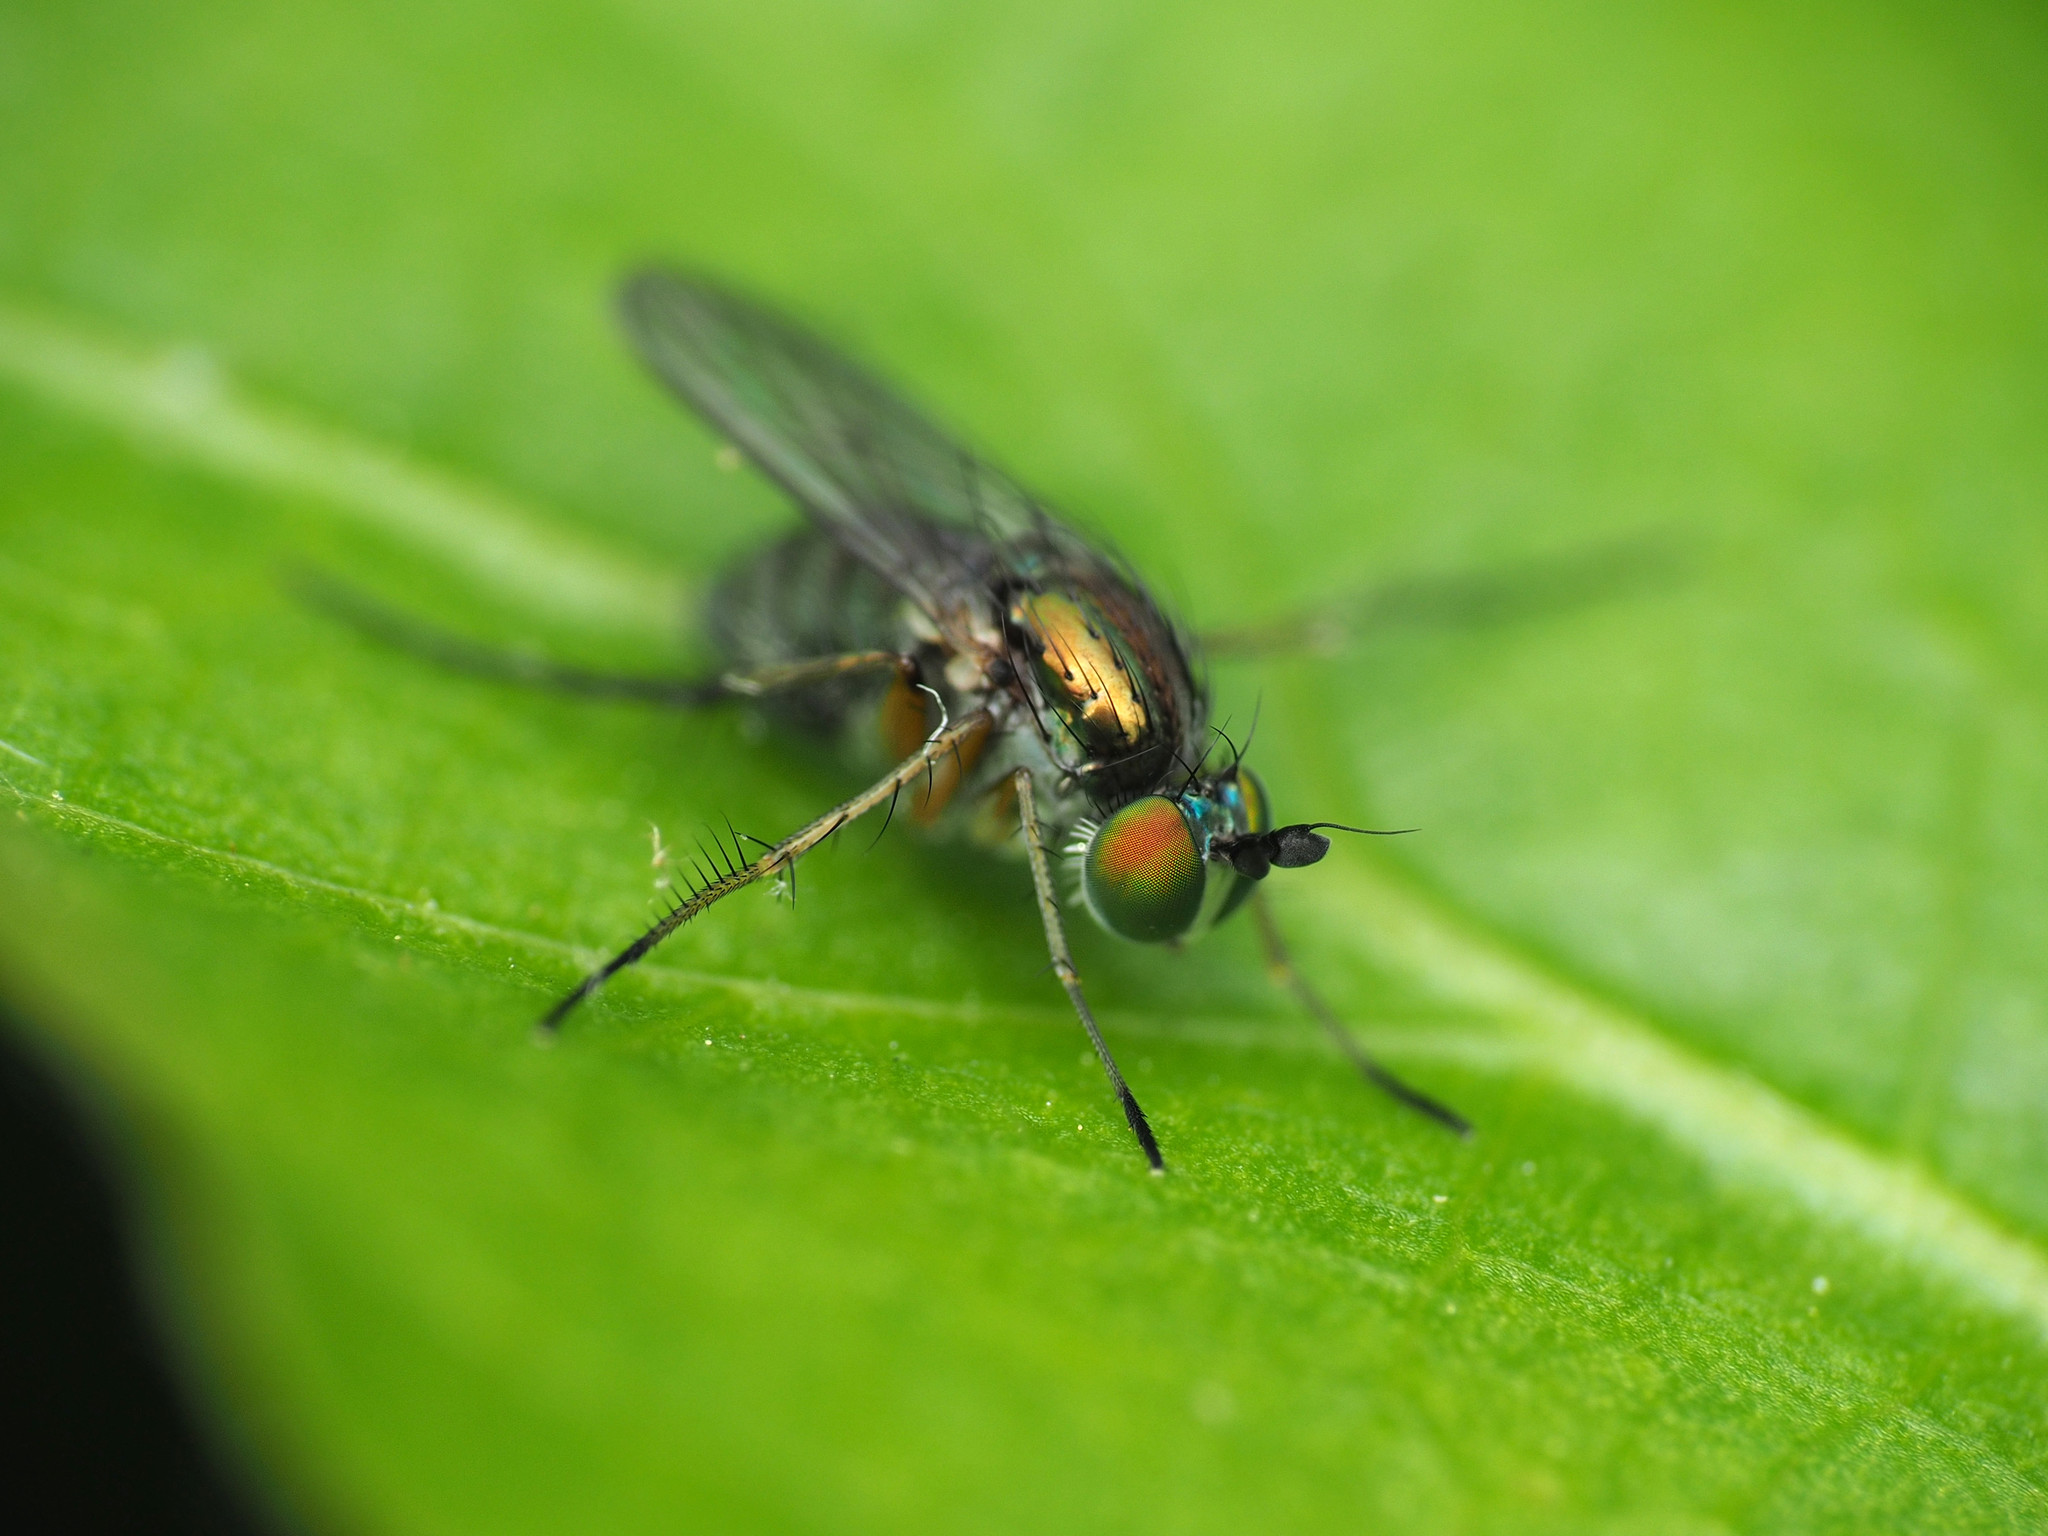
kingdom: Animalia
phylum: Arthropoda
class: Insecta
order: Diptera
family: Dolichopodidae
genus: Dolichopus
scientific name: Dolichopus comatus
